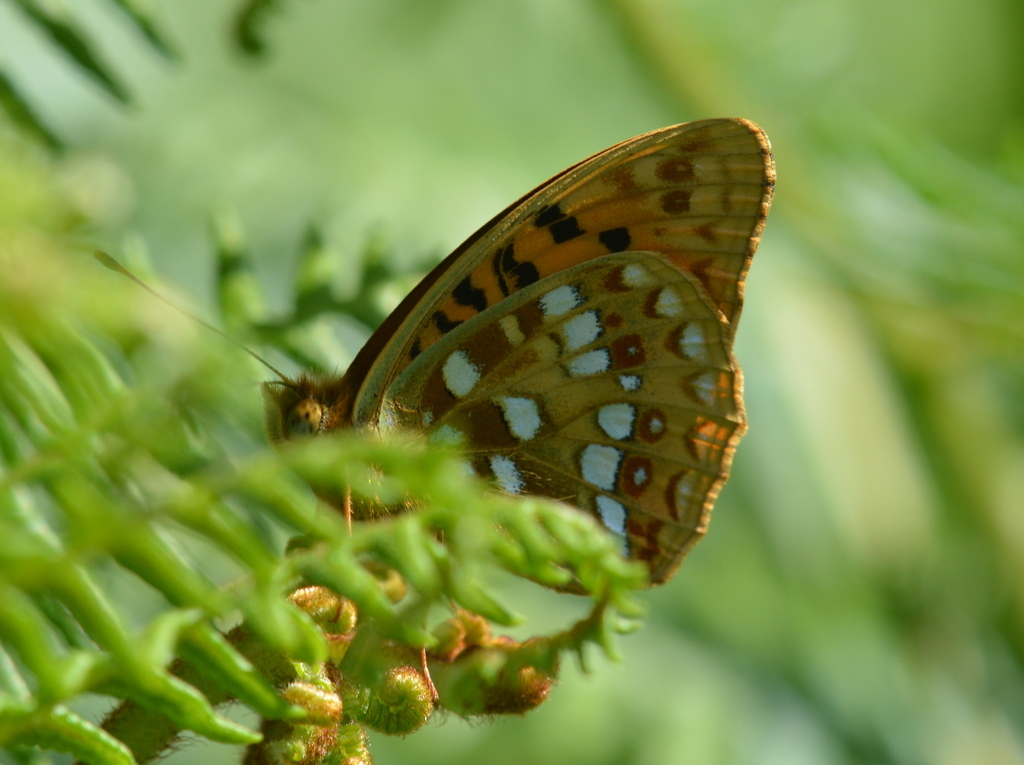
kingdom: Animalia
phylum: Arthropoda
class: Insecta
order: Lepidoptera
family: Nymphalidae
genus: Fabriciana
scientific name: Fabriciana adippe
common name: High brown fritillary
